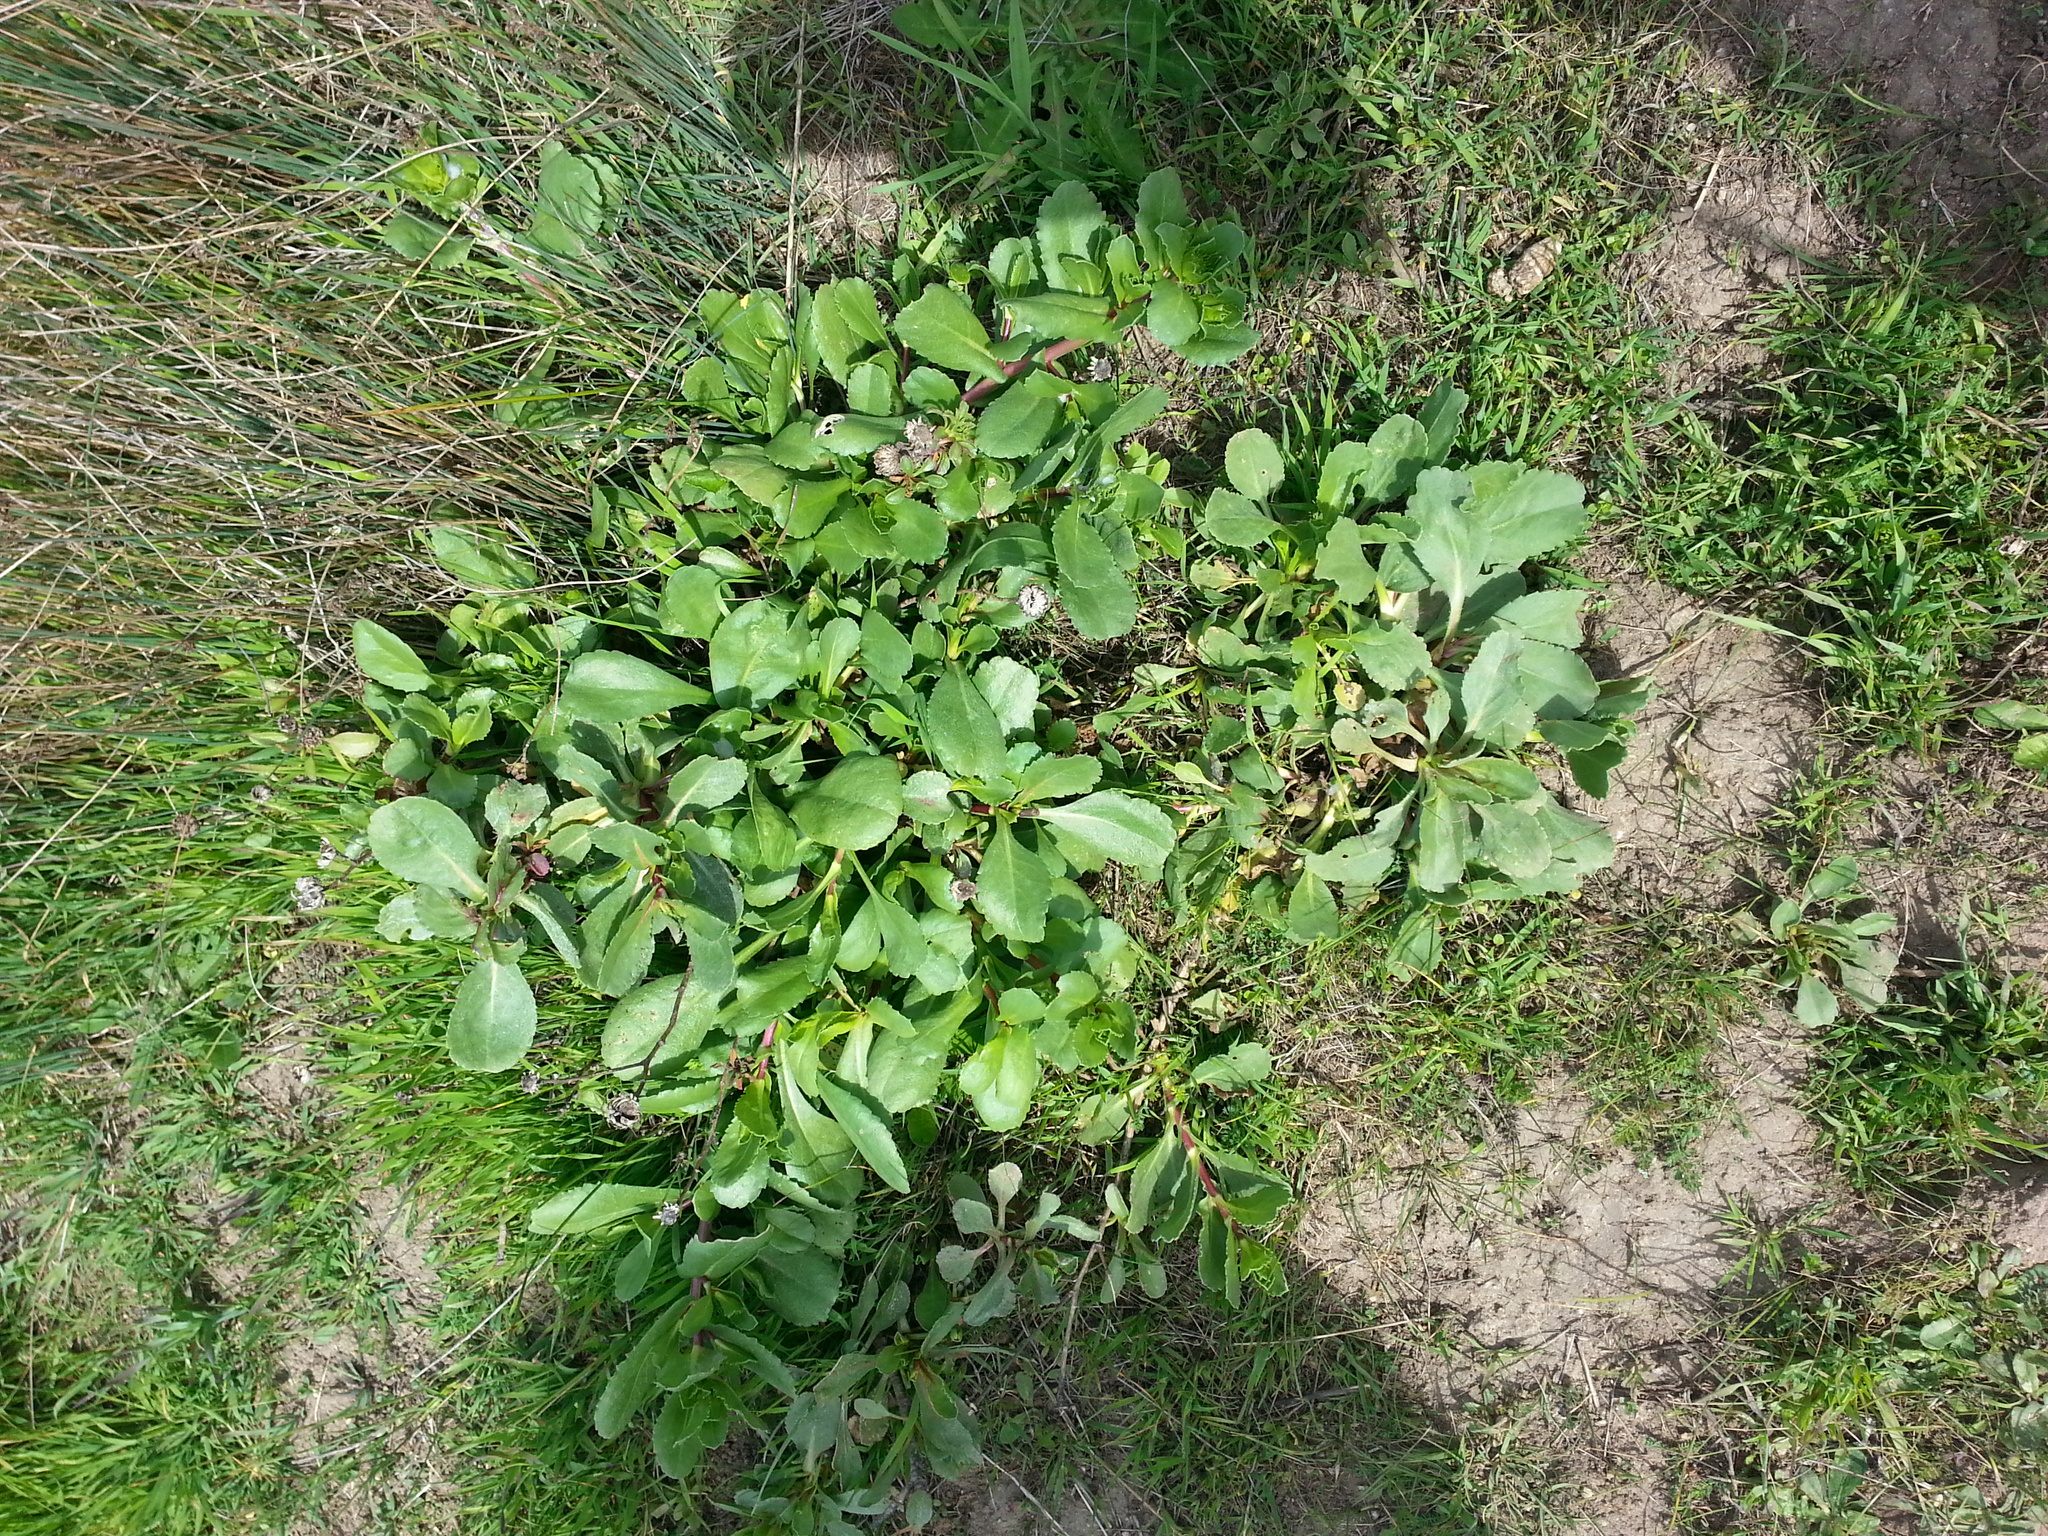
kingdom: Plantae
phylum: Tracheophyta
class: Magnoliopsida
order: Asterales
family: Asteraceae
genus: Grindelia
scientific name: Grindelia hirsutula
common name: Hairy gumweed
